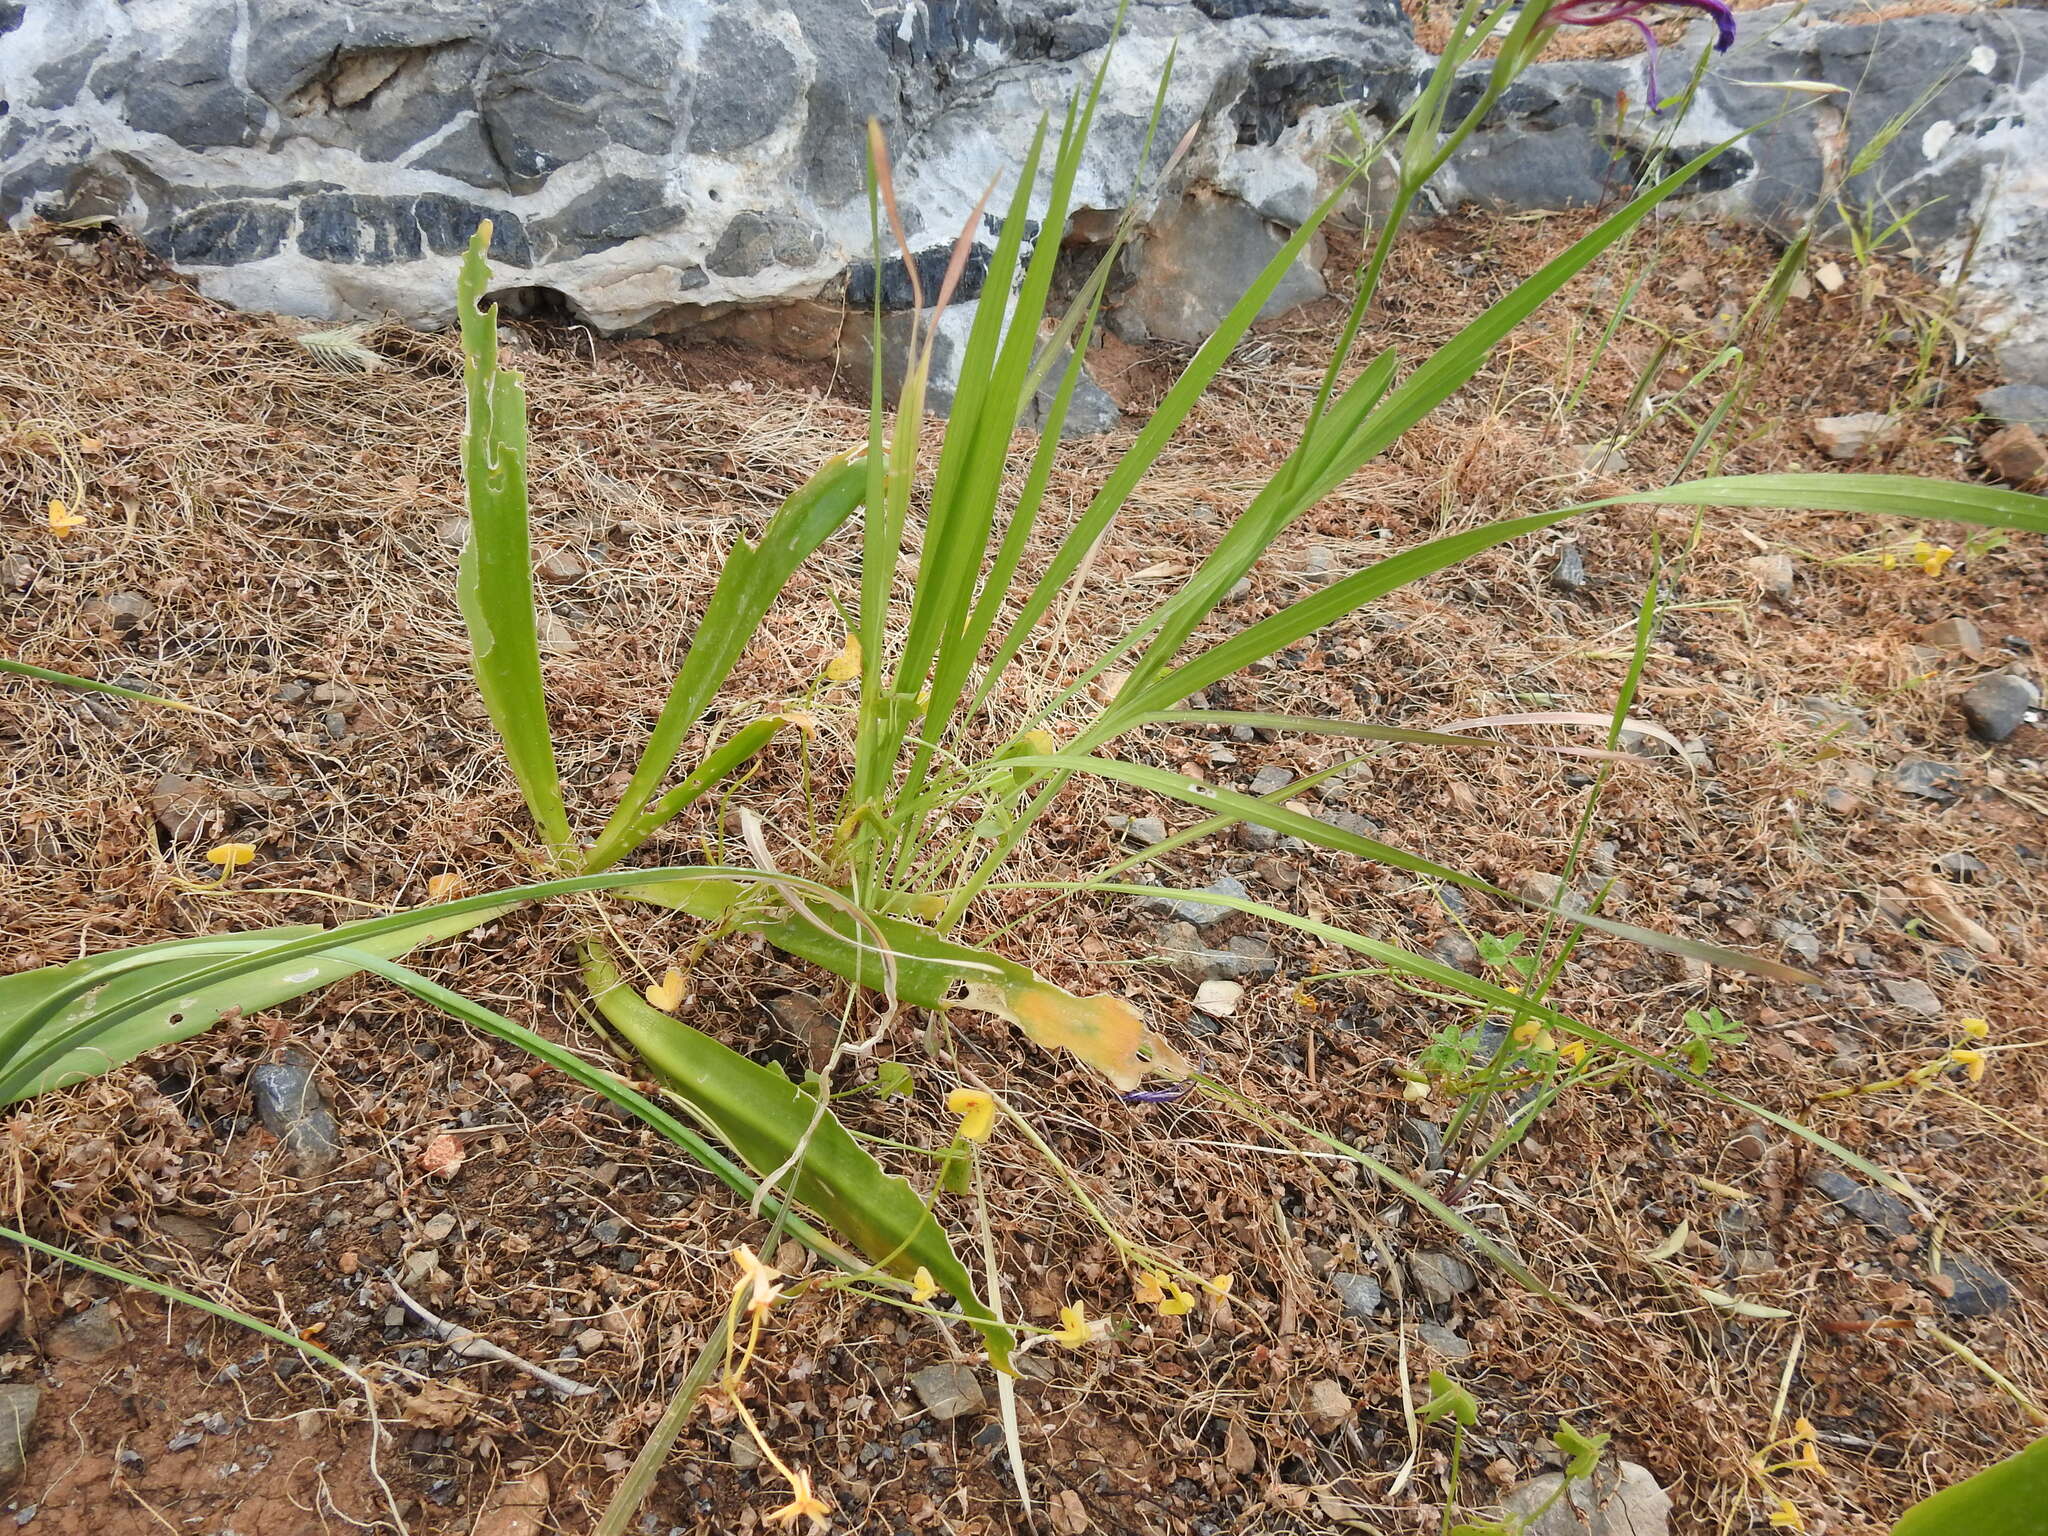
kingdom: Plantae
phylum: Tracheophyta
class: Liliopsida
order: Asparagales
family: Iridaceae
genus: Gladiolus
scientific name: Gladiolus italicus
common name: Field gladiolus
